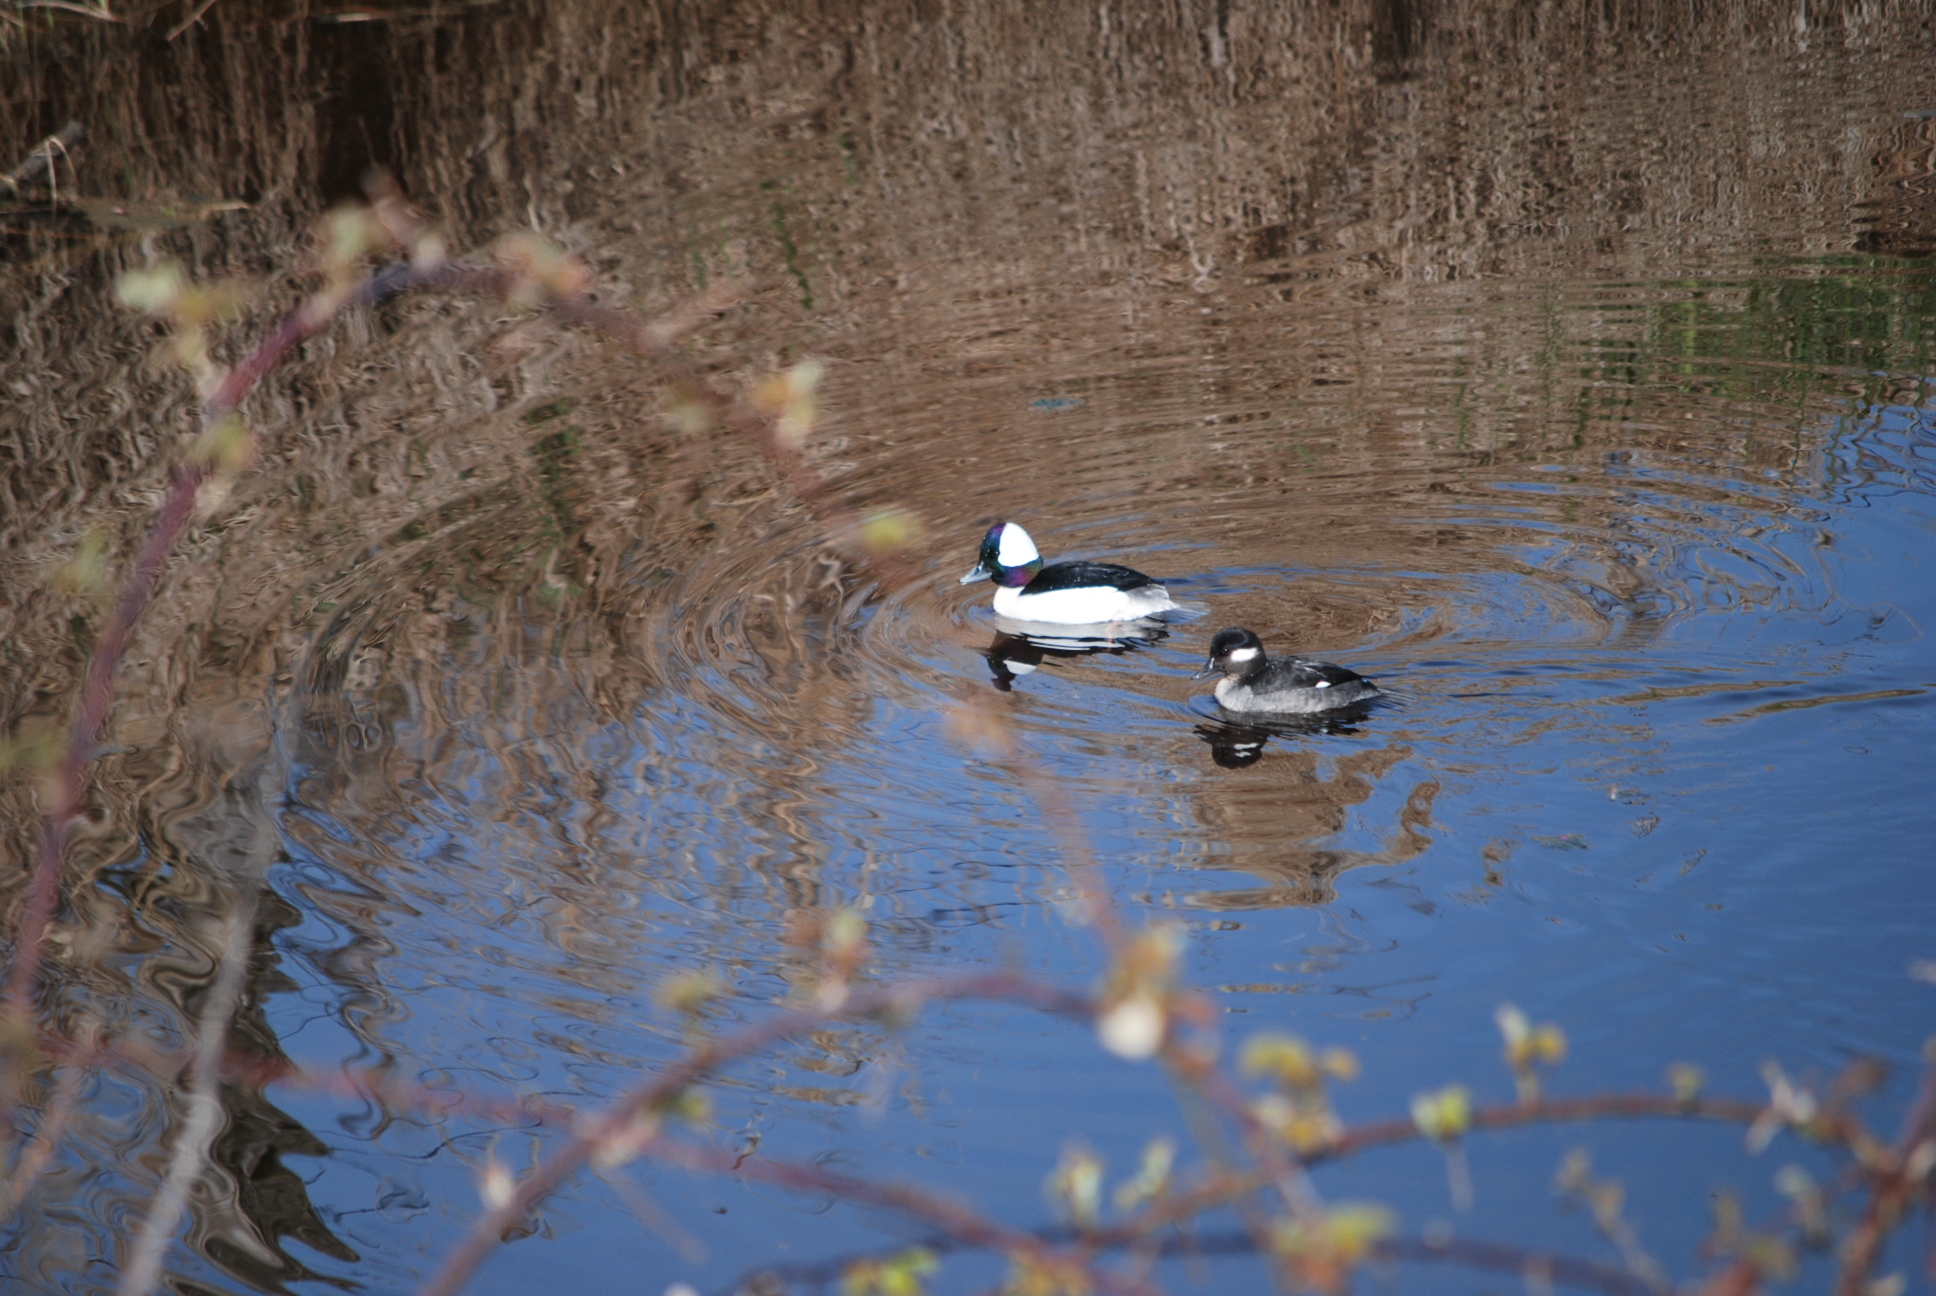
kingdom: Animalia
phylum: Chordata
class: Aves
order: Anseriformes
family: Anatidae
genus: Bucephala
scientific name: Bucephala albeola
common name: Bufflehead
